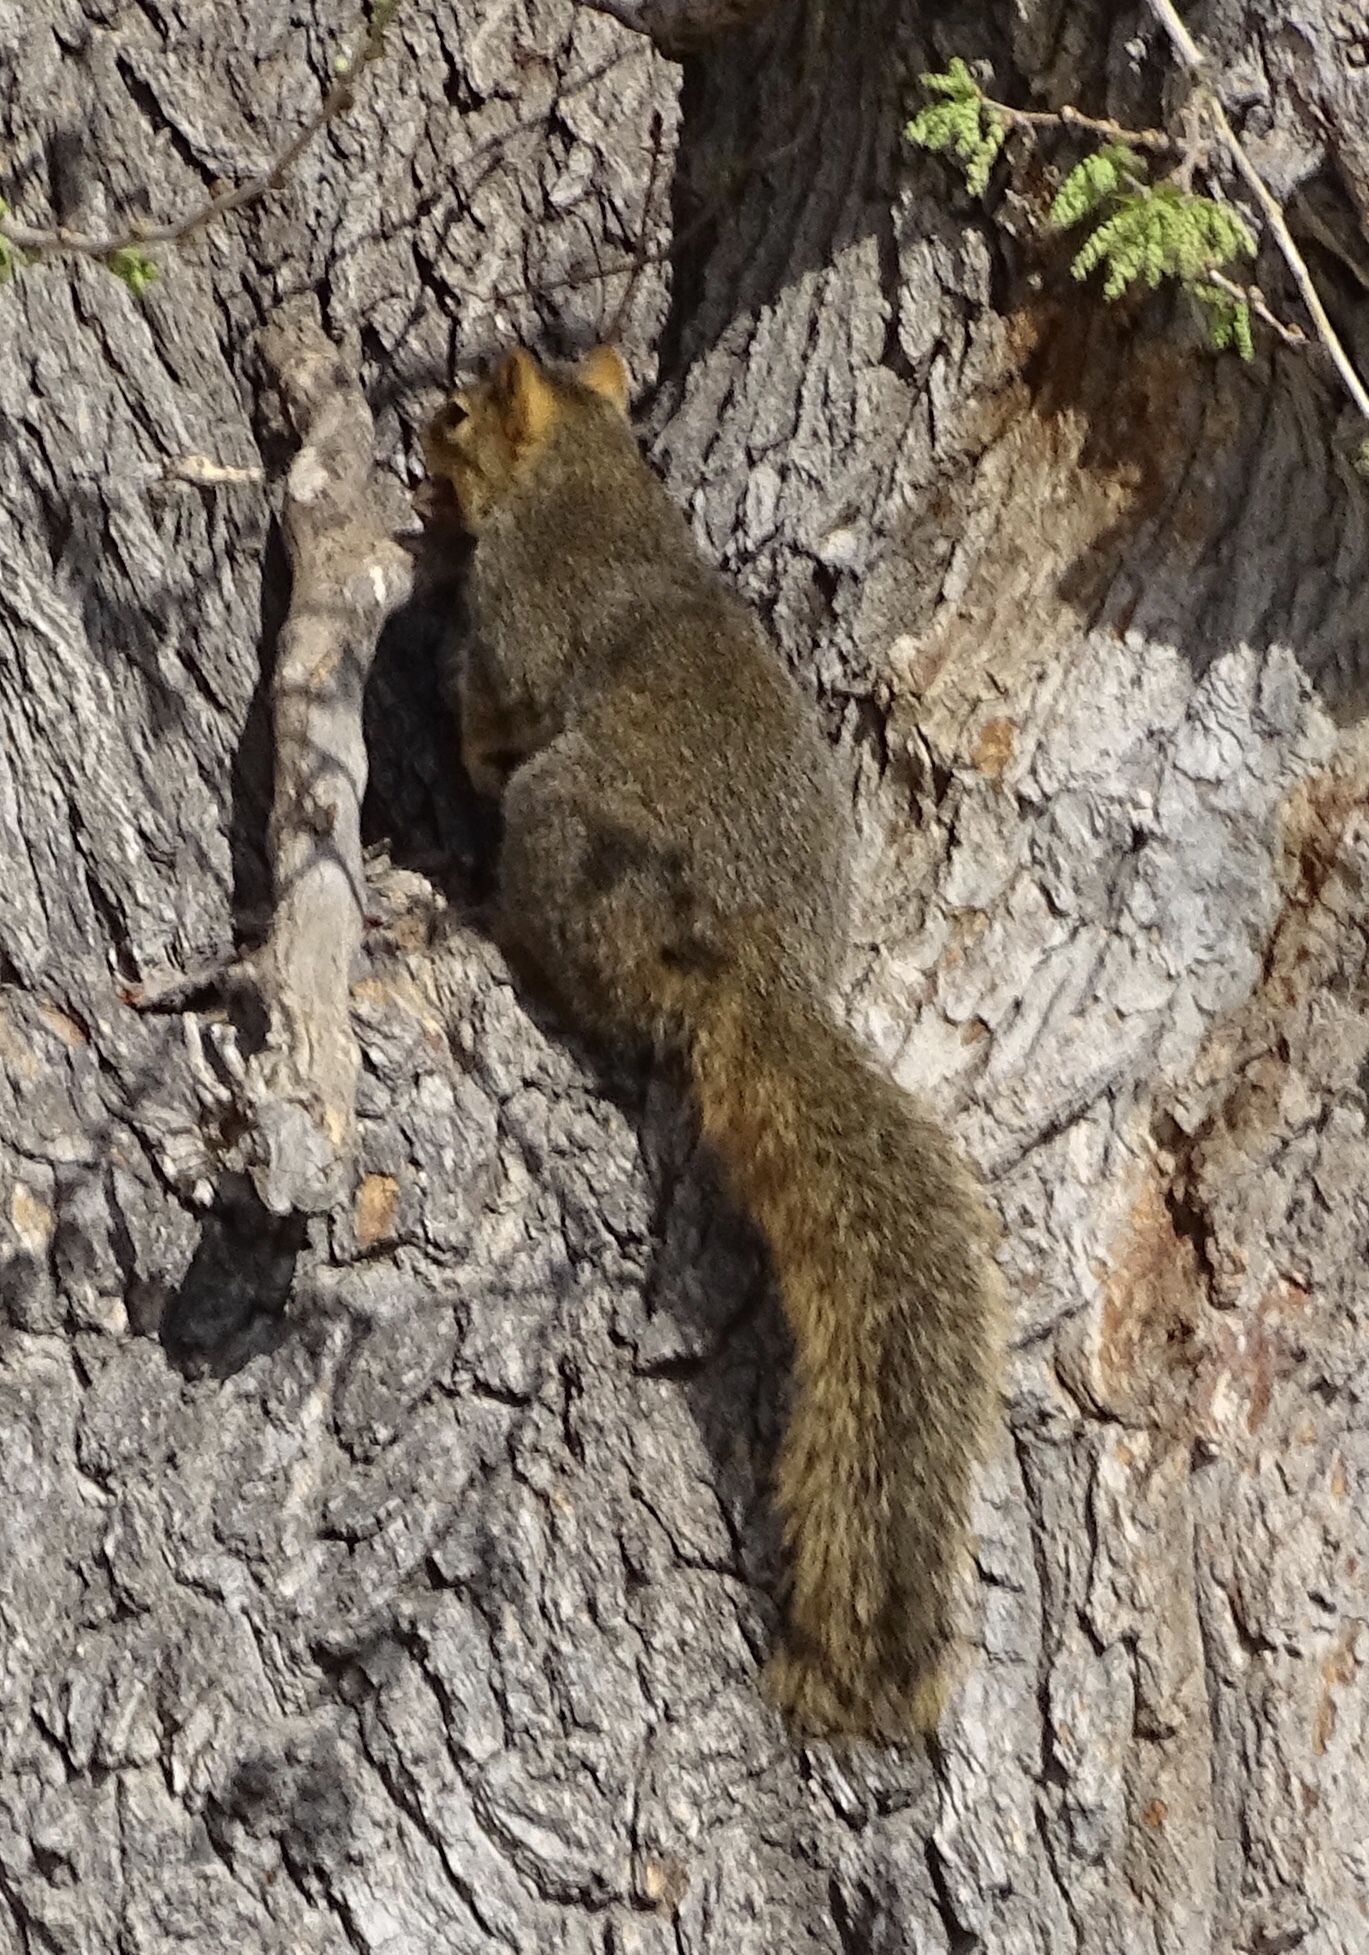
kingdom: Animalia
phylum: Chordata
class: Mammalia
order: Rodentia
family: Sciuridae
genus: Sciurus
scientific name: Sciurus niger
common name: Fox squirrel
